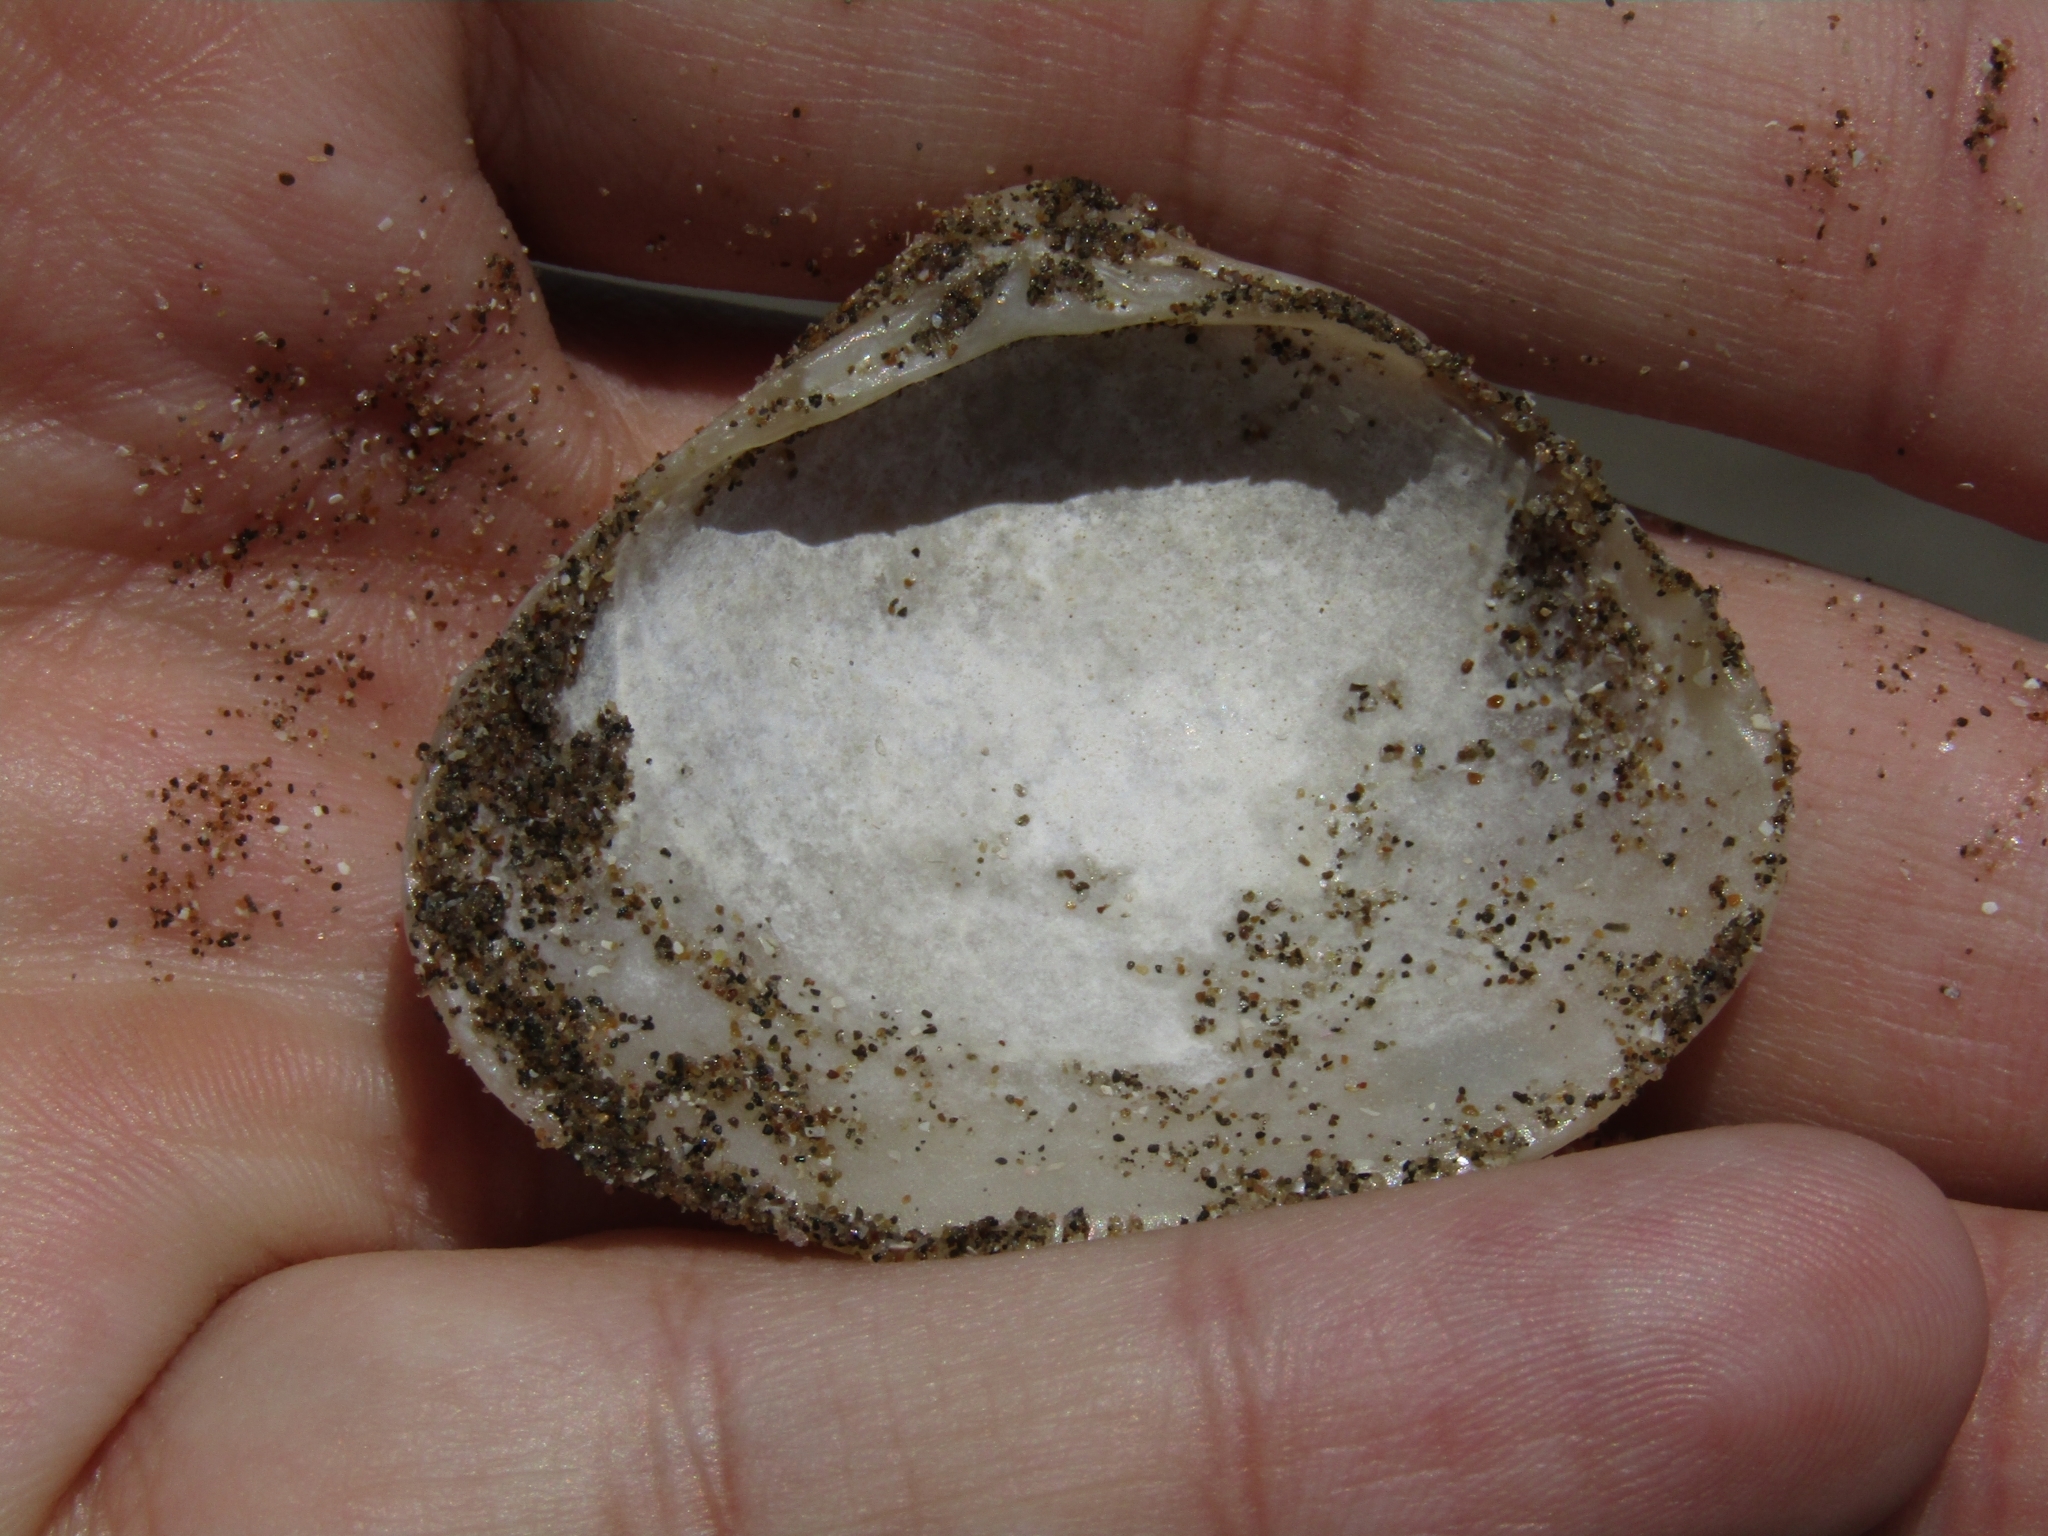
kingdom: Animalia
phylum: Mollusca
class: Bivalvia
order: Venerida
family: Veneridae
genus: Tivela
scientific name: Tivela dentaria
